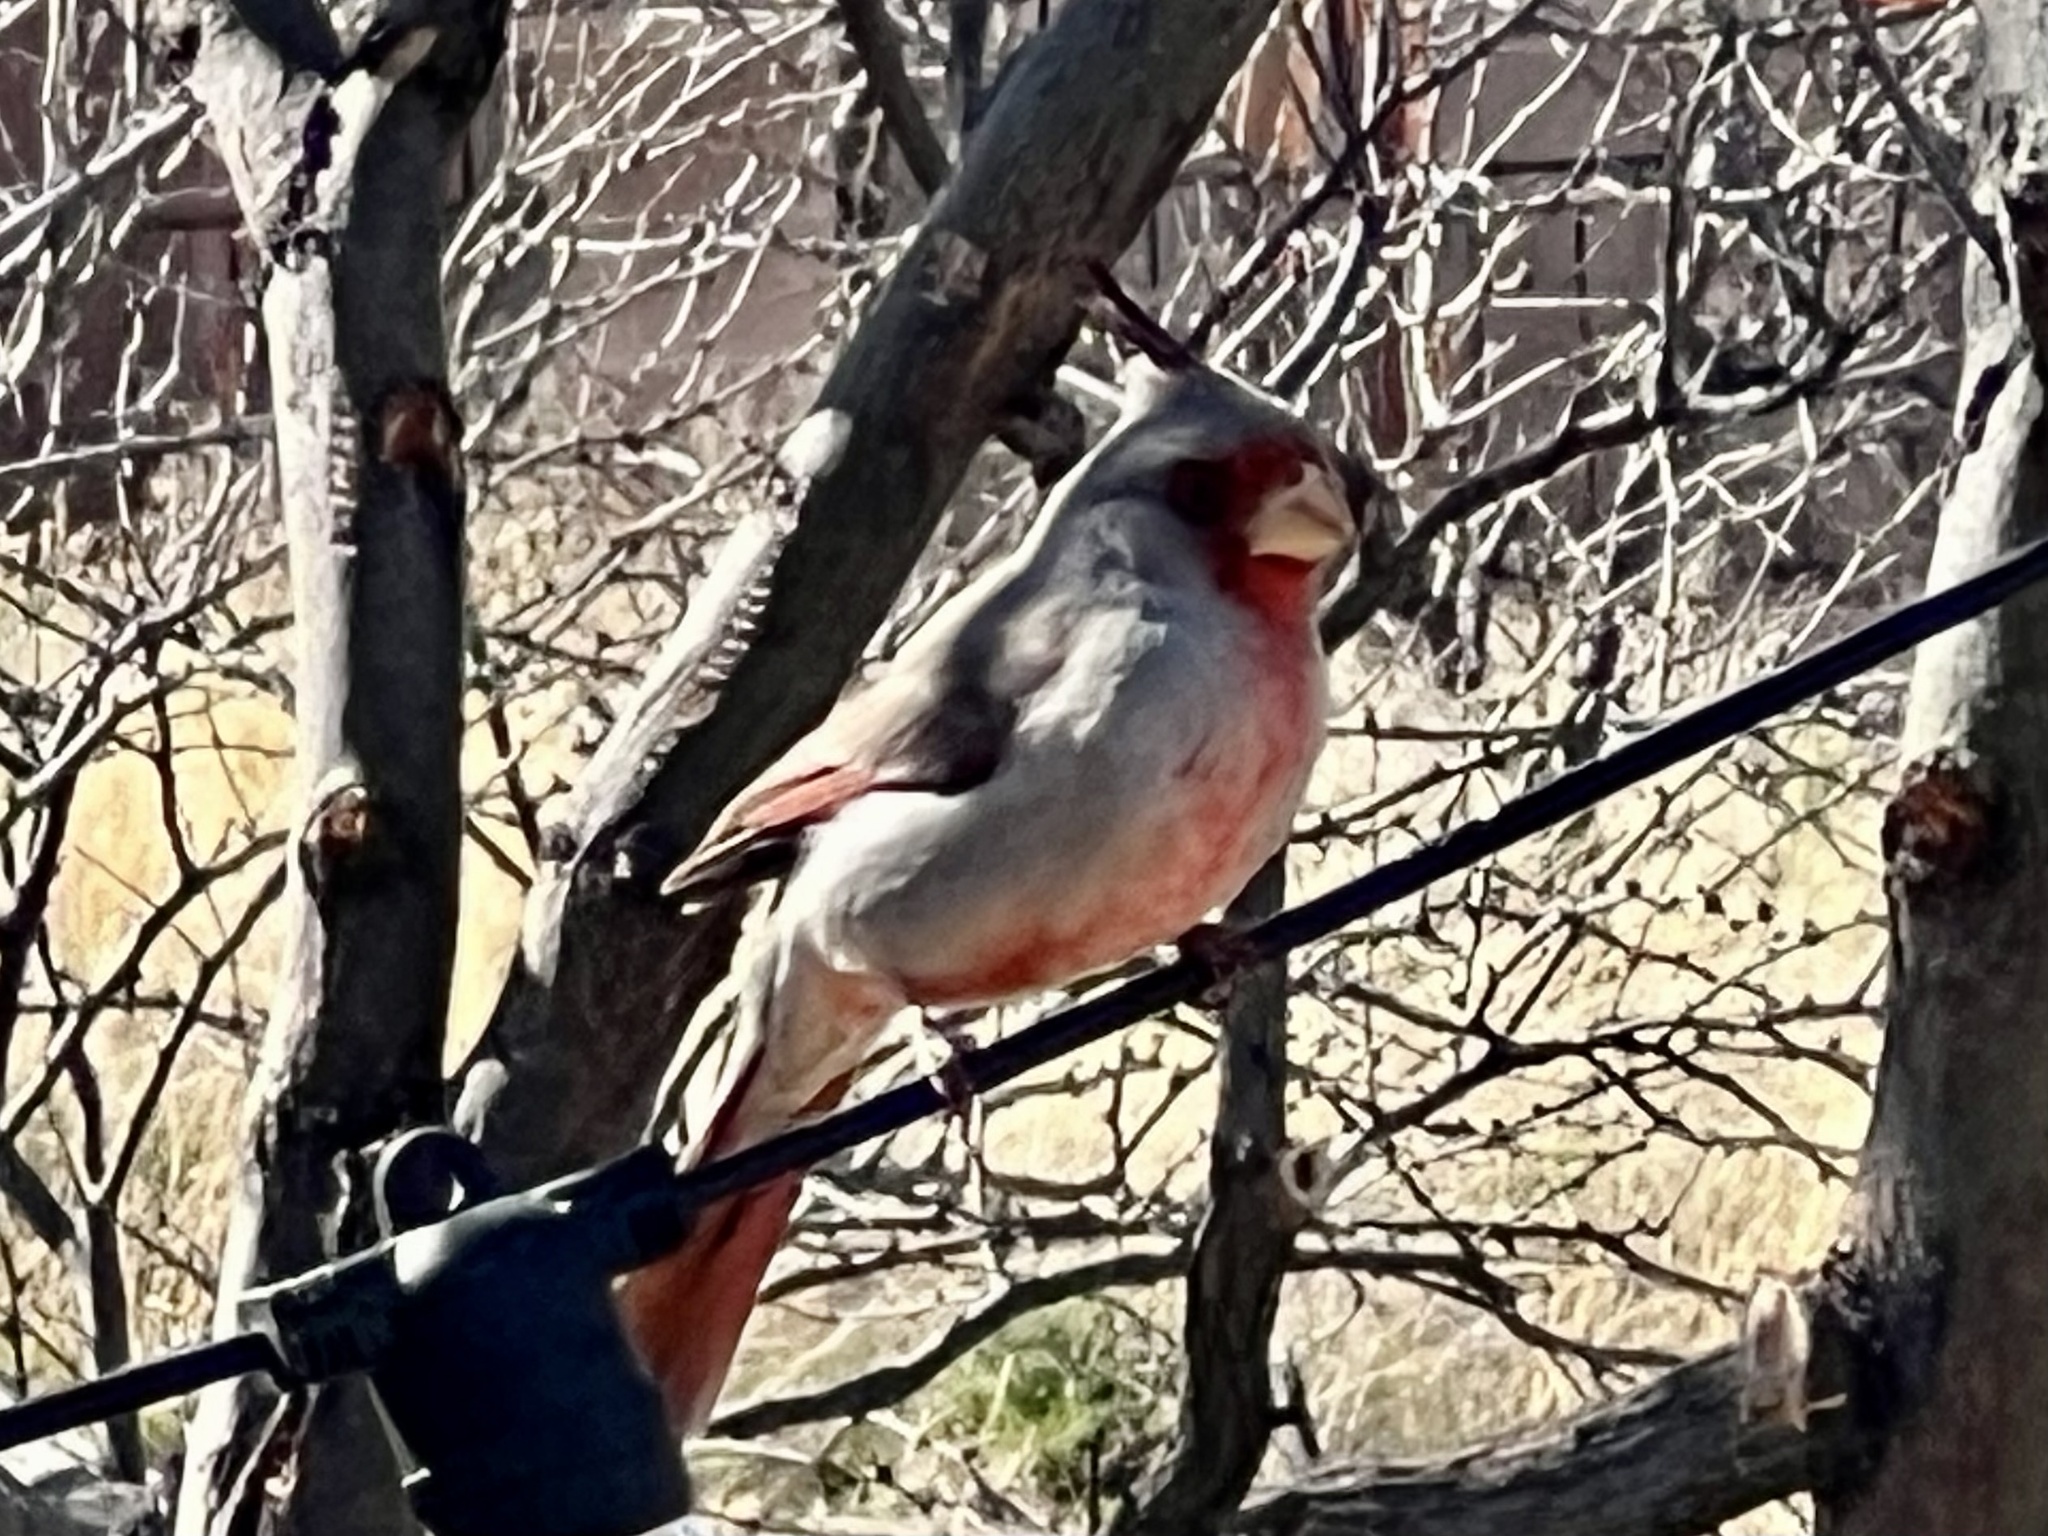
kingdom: Animalia
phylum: Chordata
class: Aves
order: Passeriformes
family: Cardinalidae
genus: Cardinalis
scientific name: Cardinalis sinuatus
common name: Pyrrhuloxia
